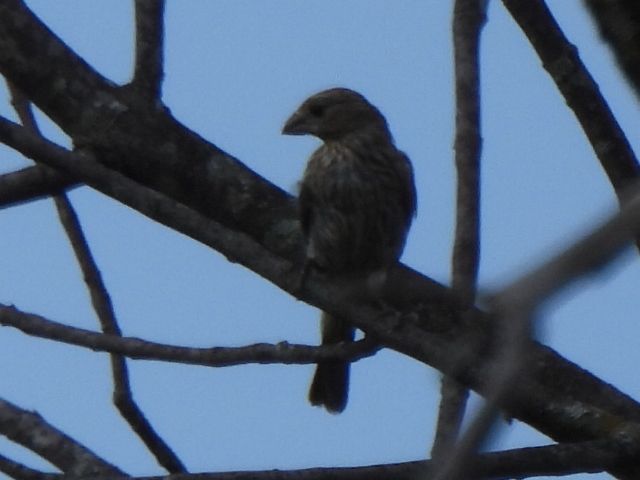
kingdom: Animalia
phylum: Chordata
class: Aves
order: Passeriformes
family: Fringillidae
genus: Haemorhous
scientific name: Haemorhous mexicanus
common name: House finch
